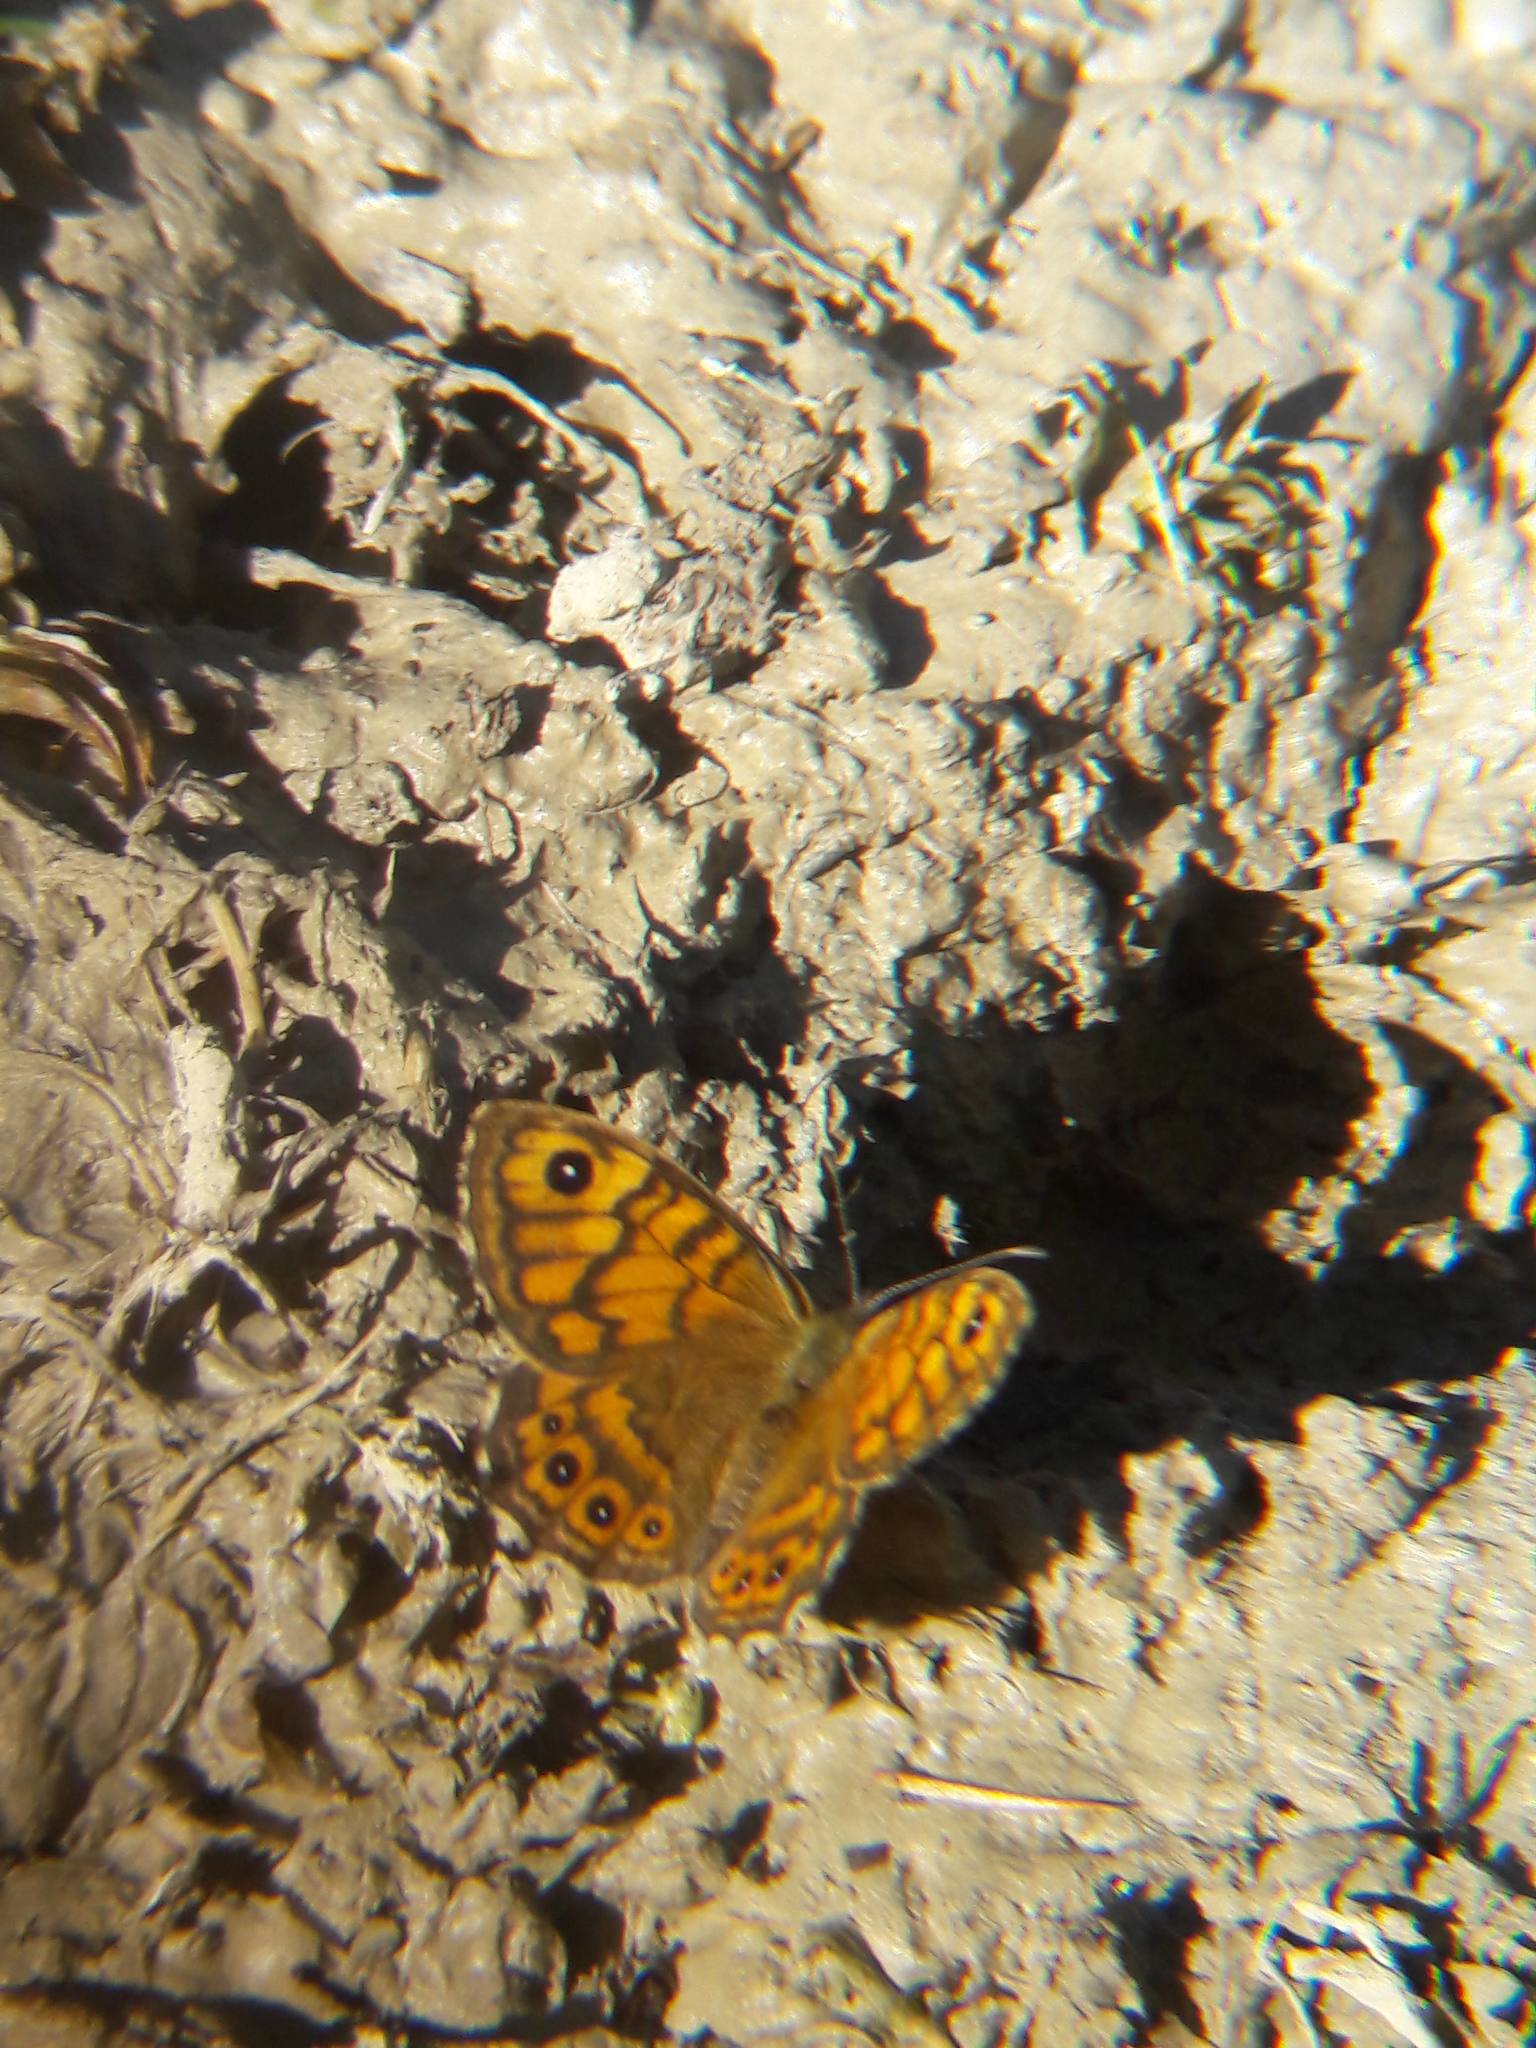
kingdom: Animalia
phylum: Arthropoda
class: Insecta
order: Lepidoptera
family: Nymphalidae
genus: Pararge
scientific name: Pararge Lasiommata megera
